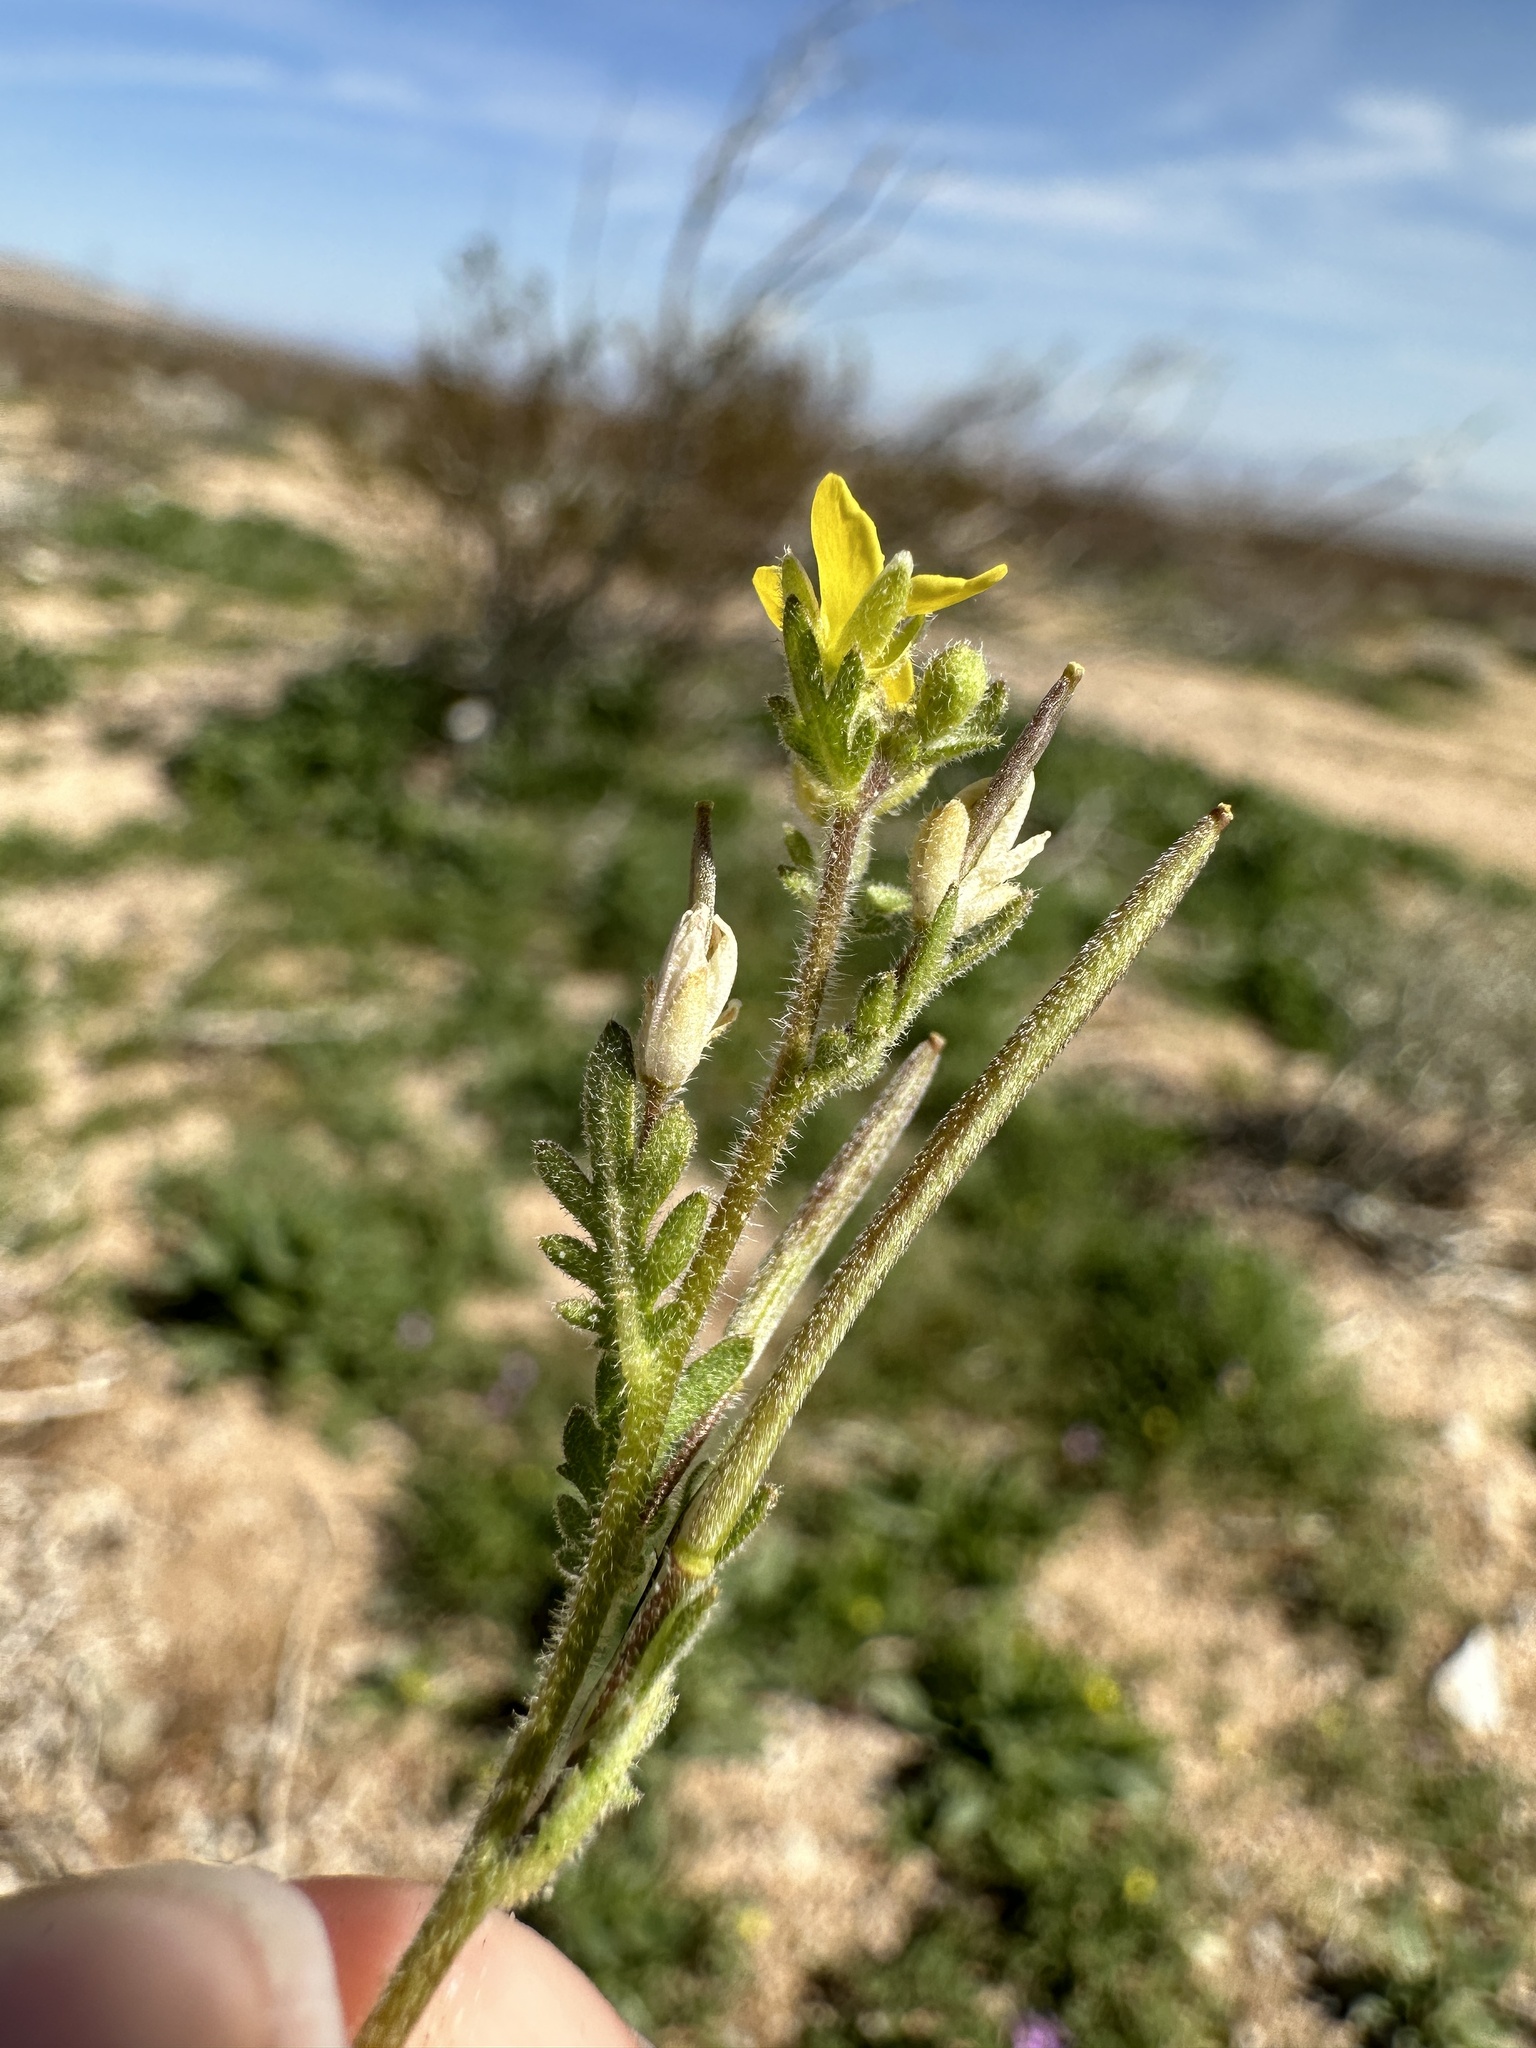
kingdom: Plantae
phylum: Tracheophyta
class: Magnoliopsida
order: Brassicales
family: Brassicaceae
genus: Tropidocarpum
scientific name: Tropidocarpum gracile
